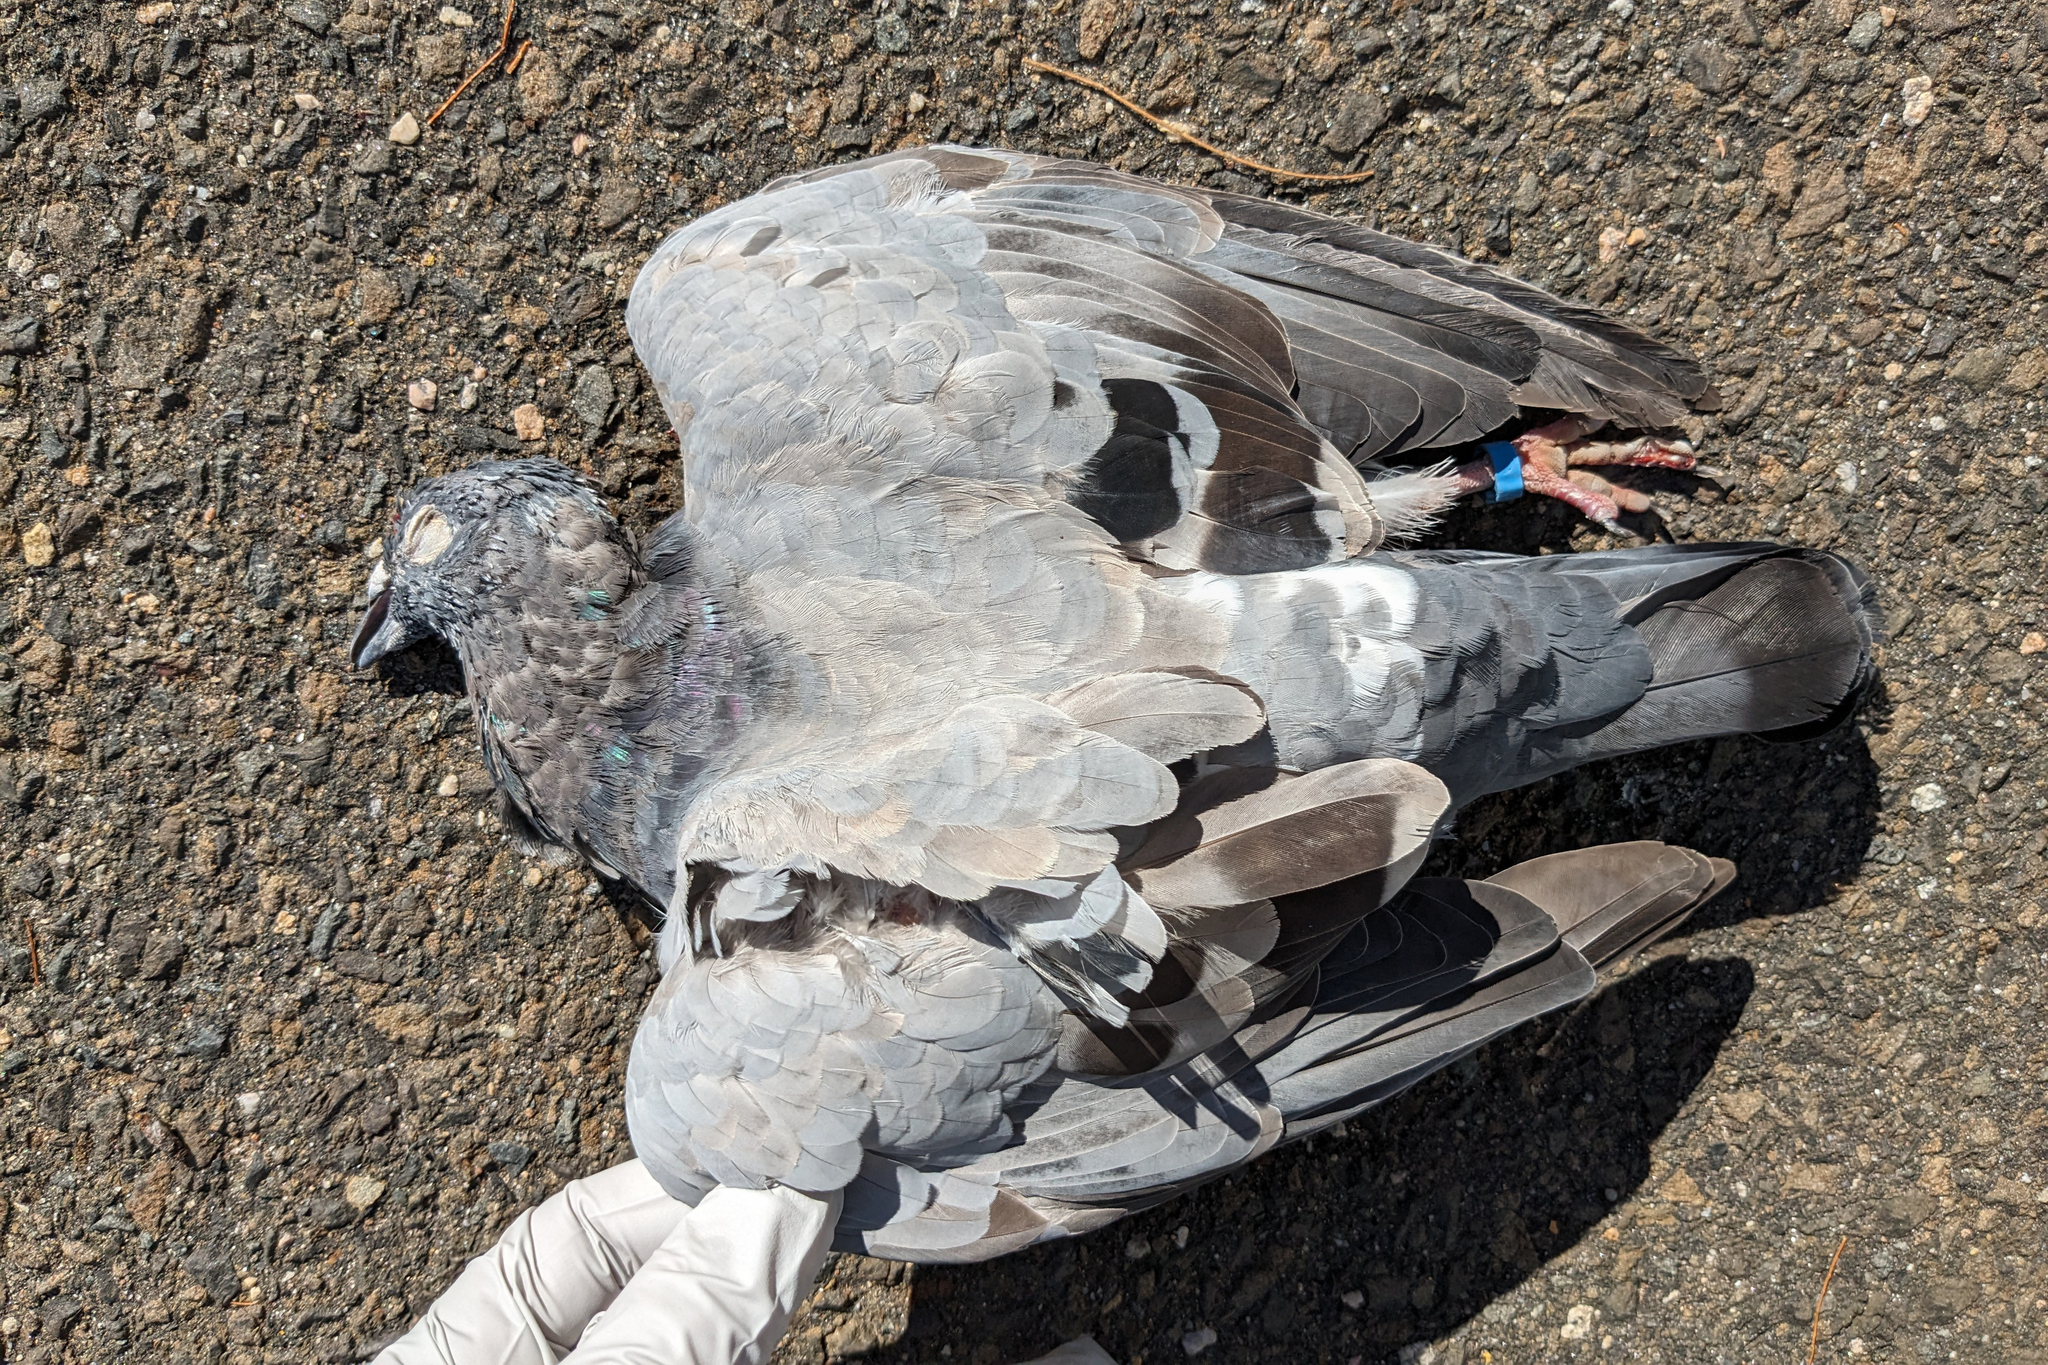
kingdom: Animalia
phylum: Chordata
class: Aves
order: Columbiformes
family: Columbidae
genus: Columba
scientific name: Columba livia
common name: Rock pigeon
